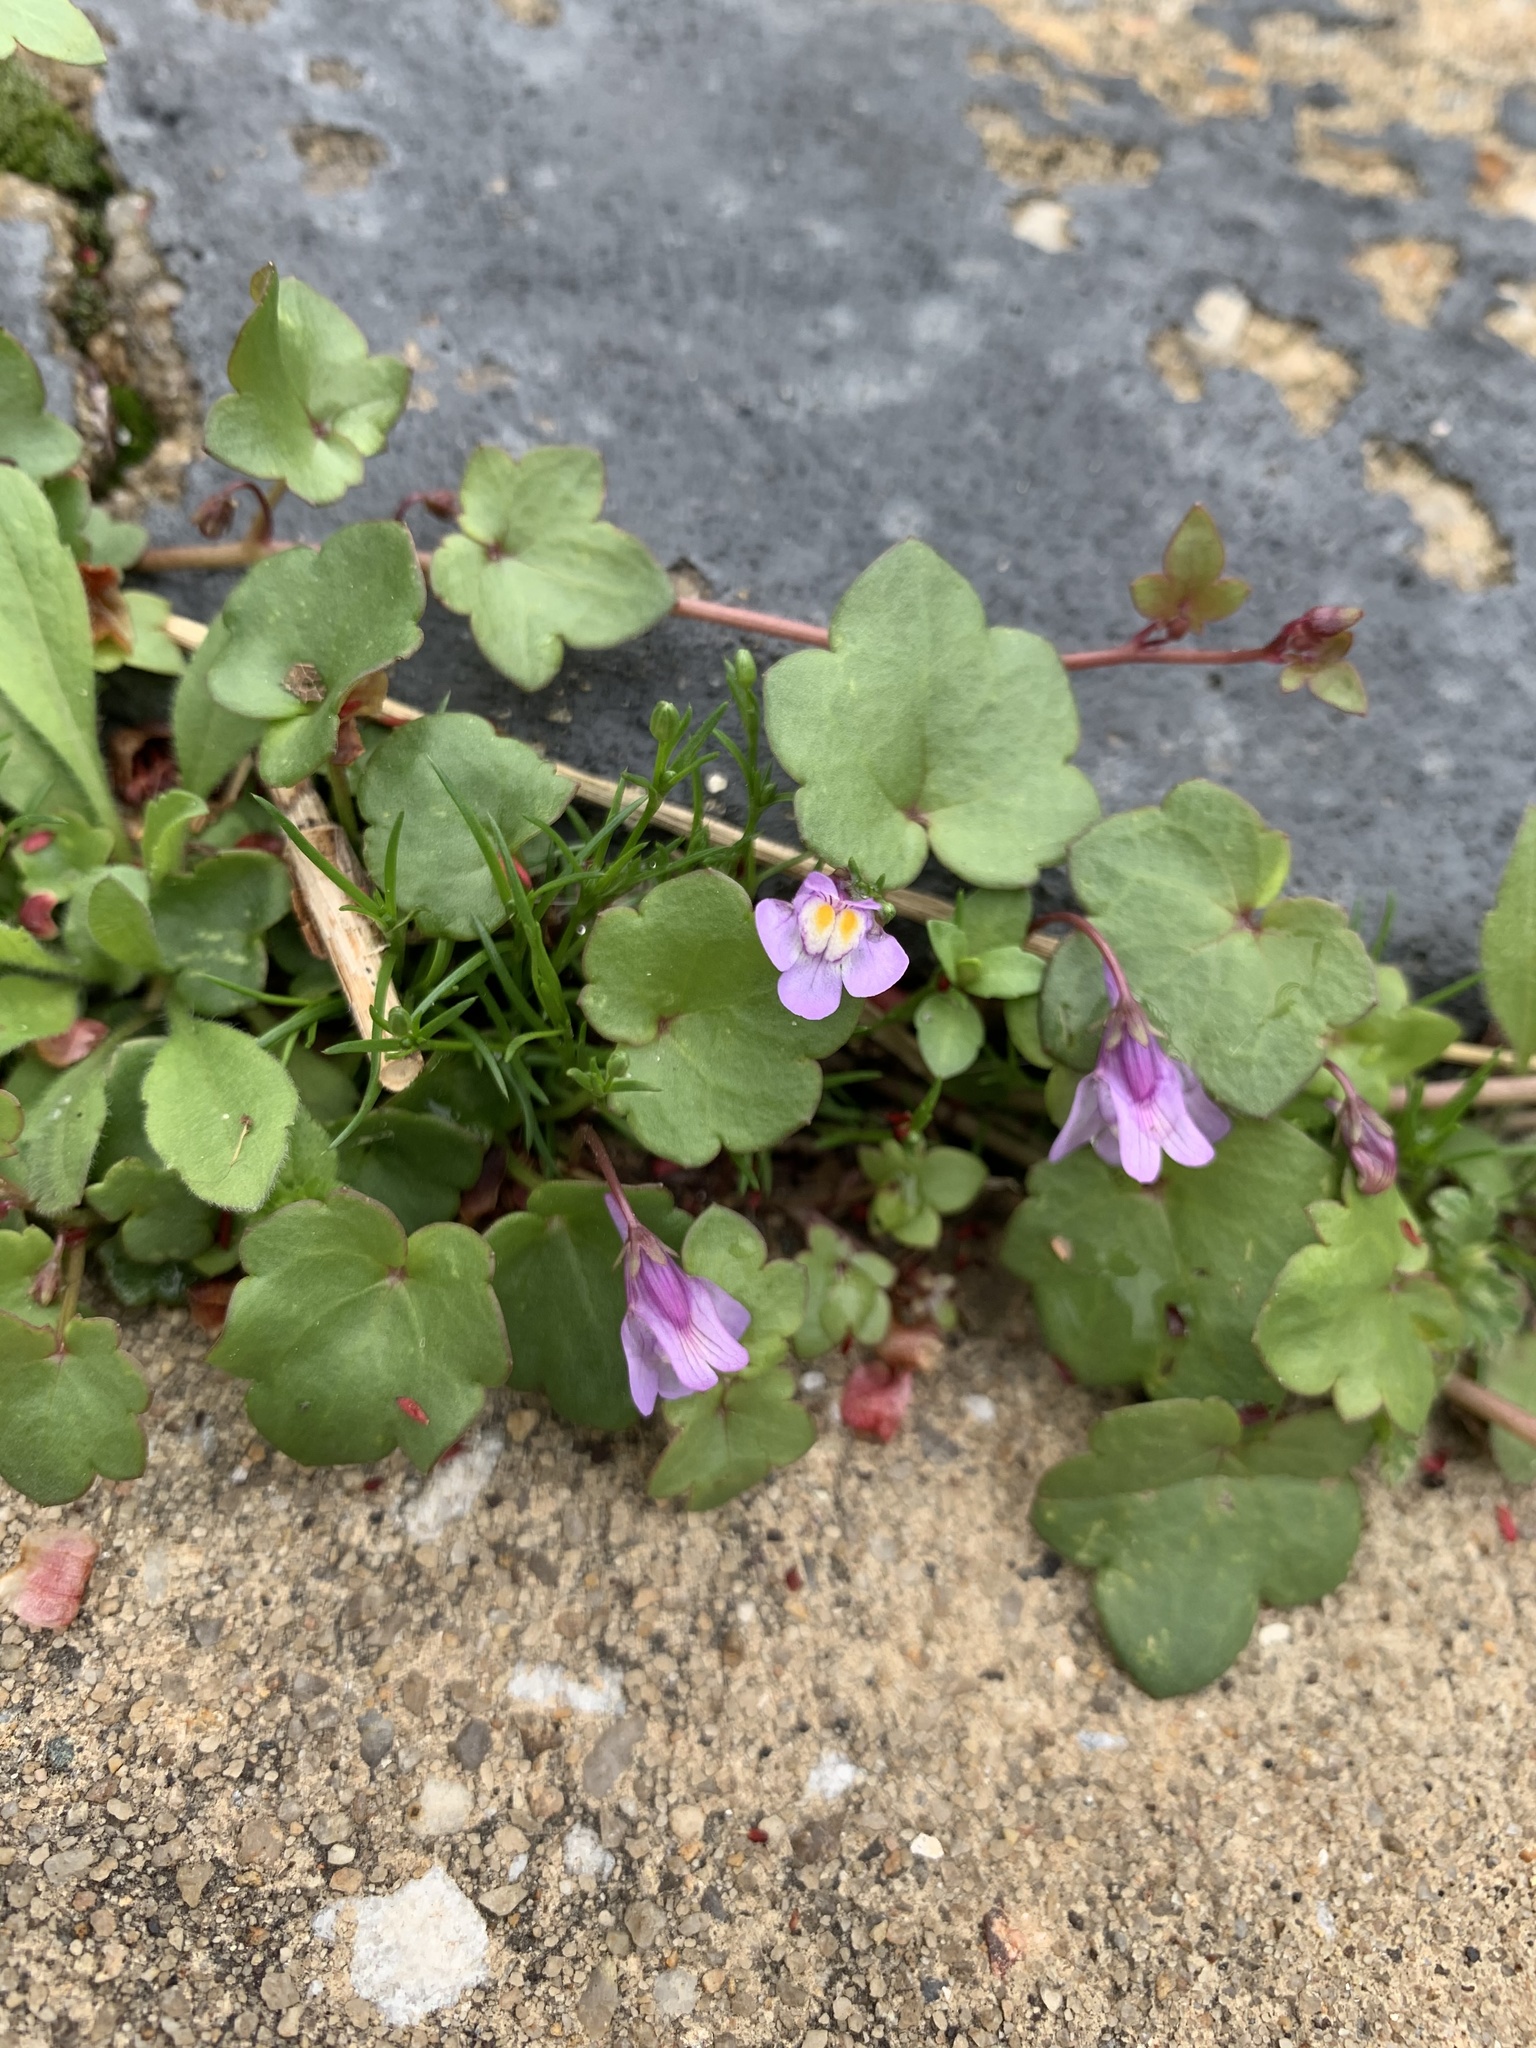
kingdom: Plantae
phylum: Tracheophyta
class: Magnoliopsida
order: Lamiales
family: Plantaginaceae
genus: Cymbalaria
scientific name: Cymbalaria muralis
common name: Ivy-leaved toadflax
